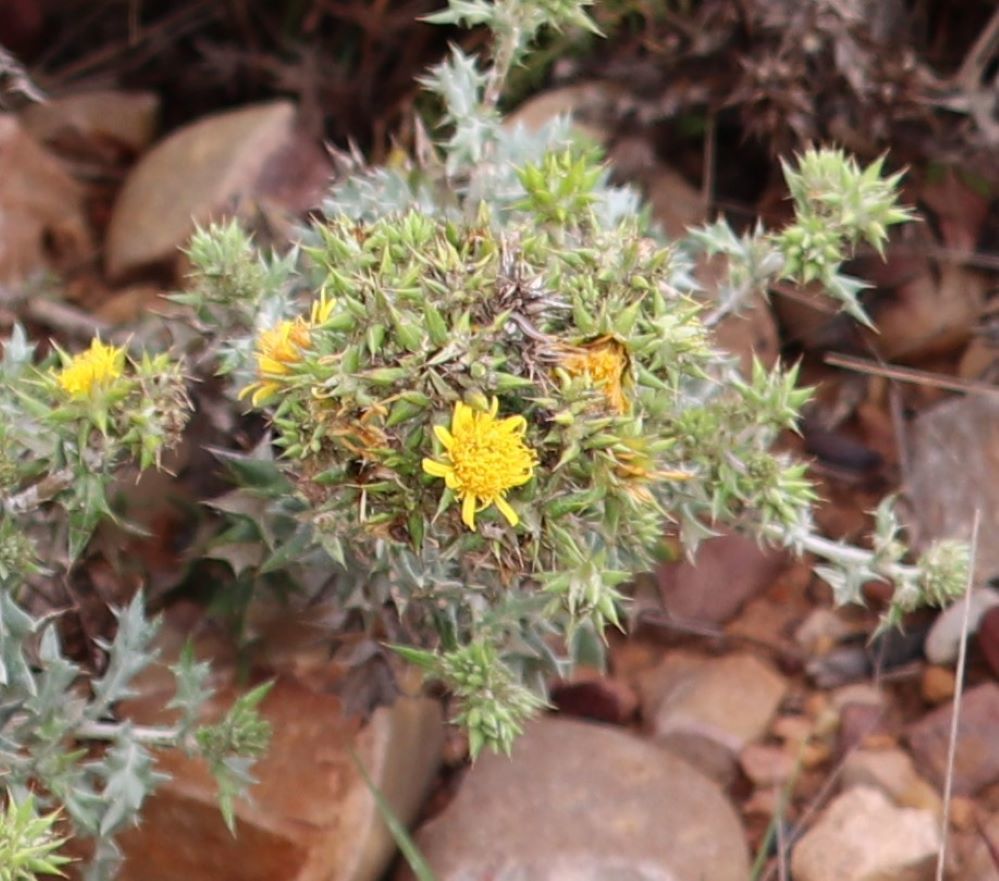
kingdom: Plantae
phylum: Tracheophyta
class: Magnoliopsida
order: Asterales
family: Asteraceae
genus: Berkheya
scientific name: Berkheya heterophylla
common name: Prickly gousblom
